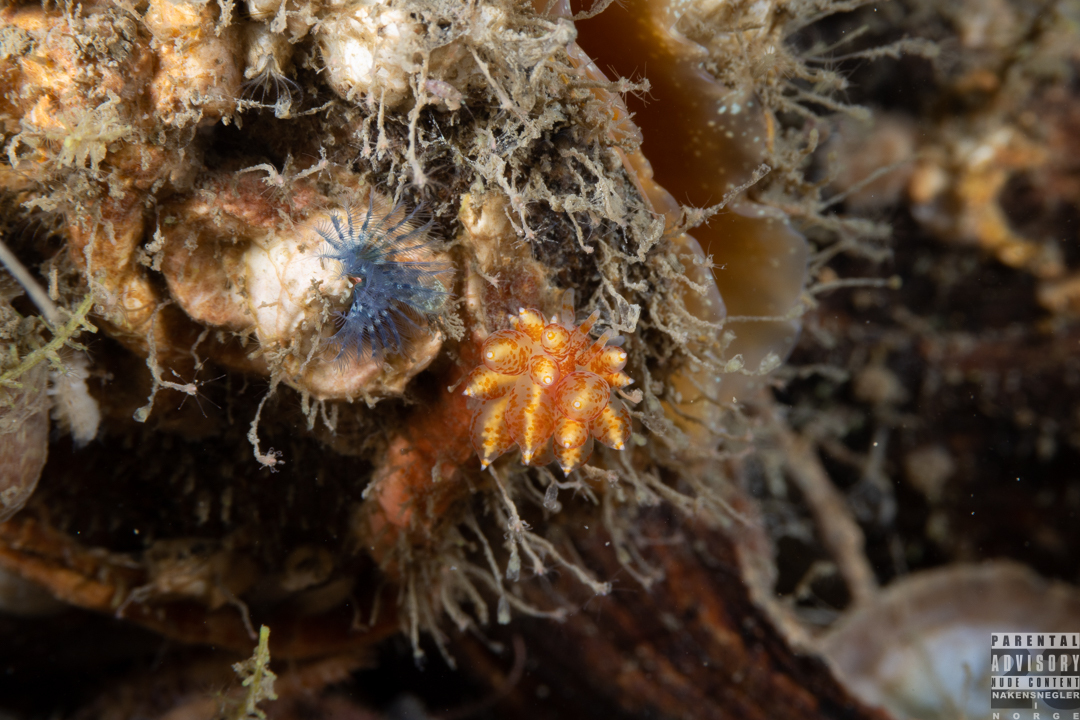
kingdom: Animalia
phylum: Mollusca
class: Gastropoda
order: Nudibranchia
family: Eubranchidae
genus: Amphorina
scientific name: Amphorina pallida
